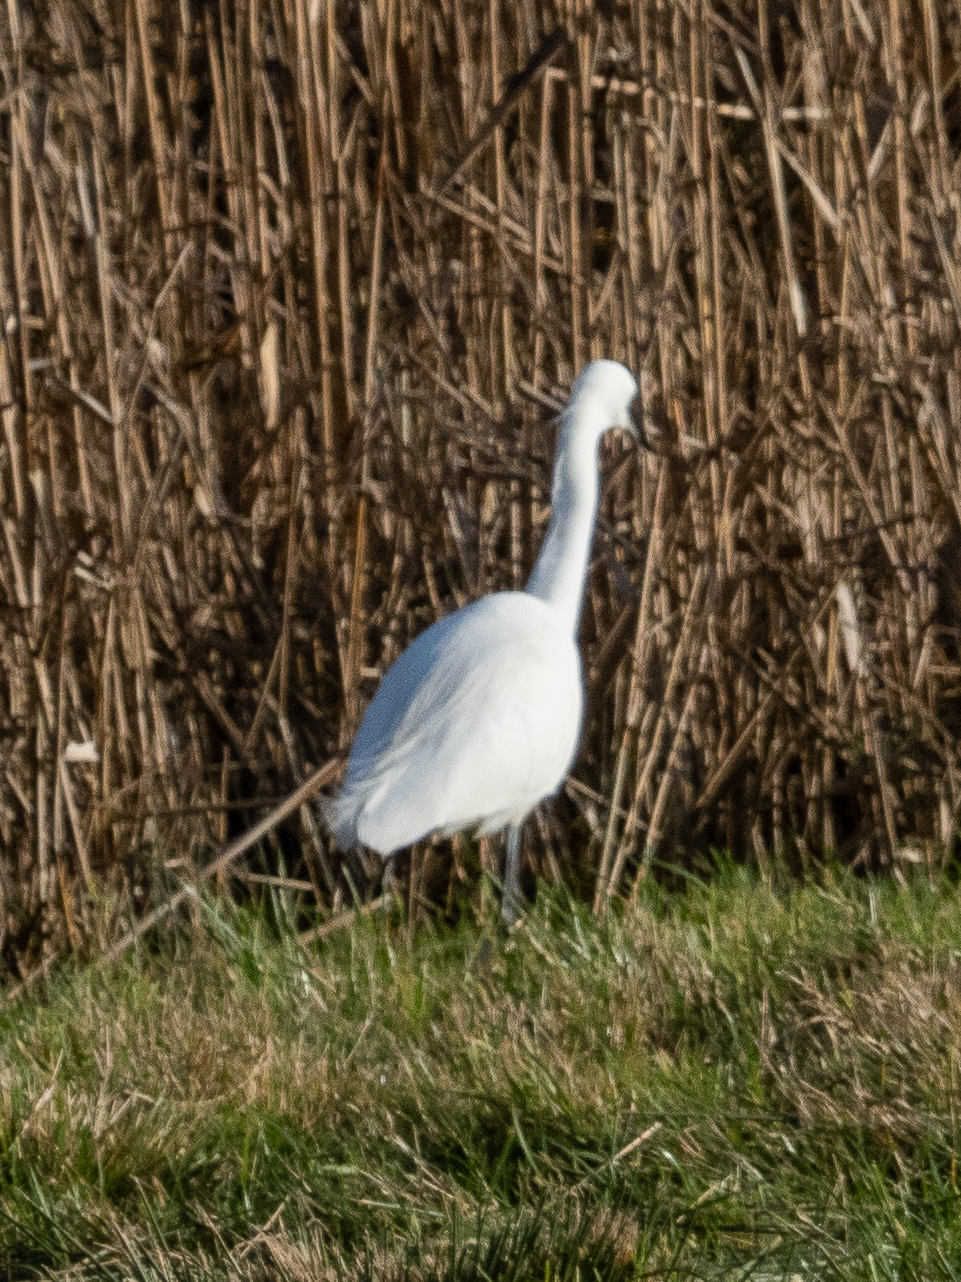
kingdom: Animalia
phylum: Chordata
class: Aves
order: Pelecaniformes
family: Ardeidae
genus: Egretta
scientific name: Egretta garzetta
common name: Little egret
